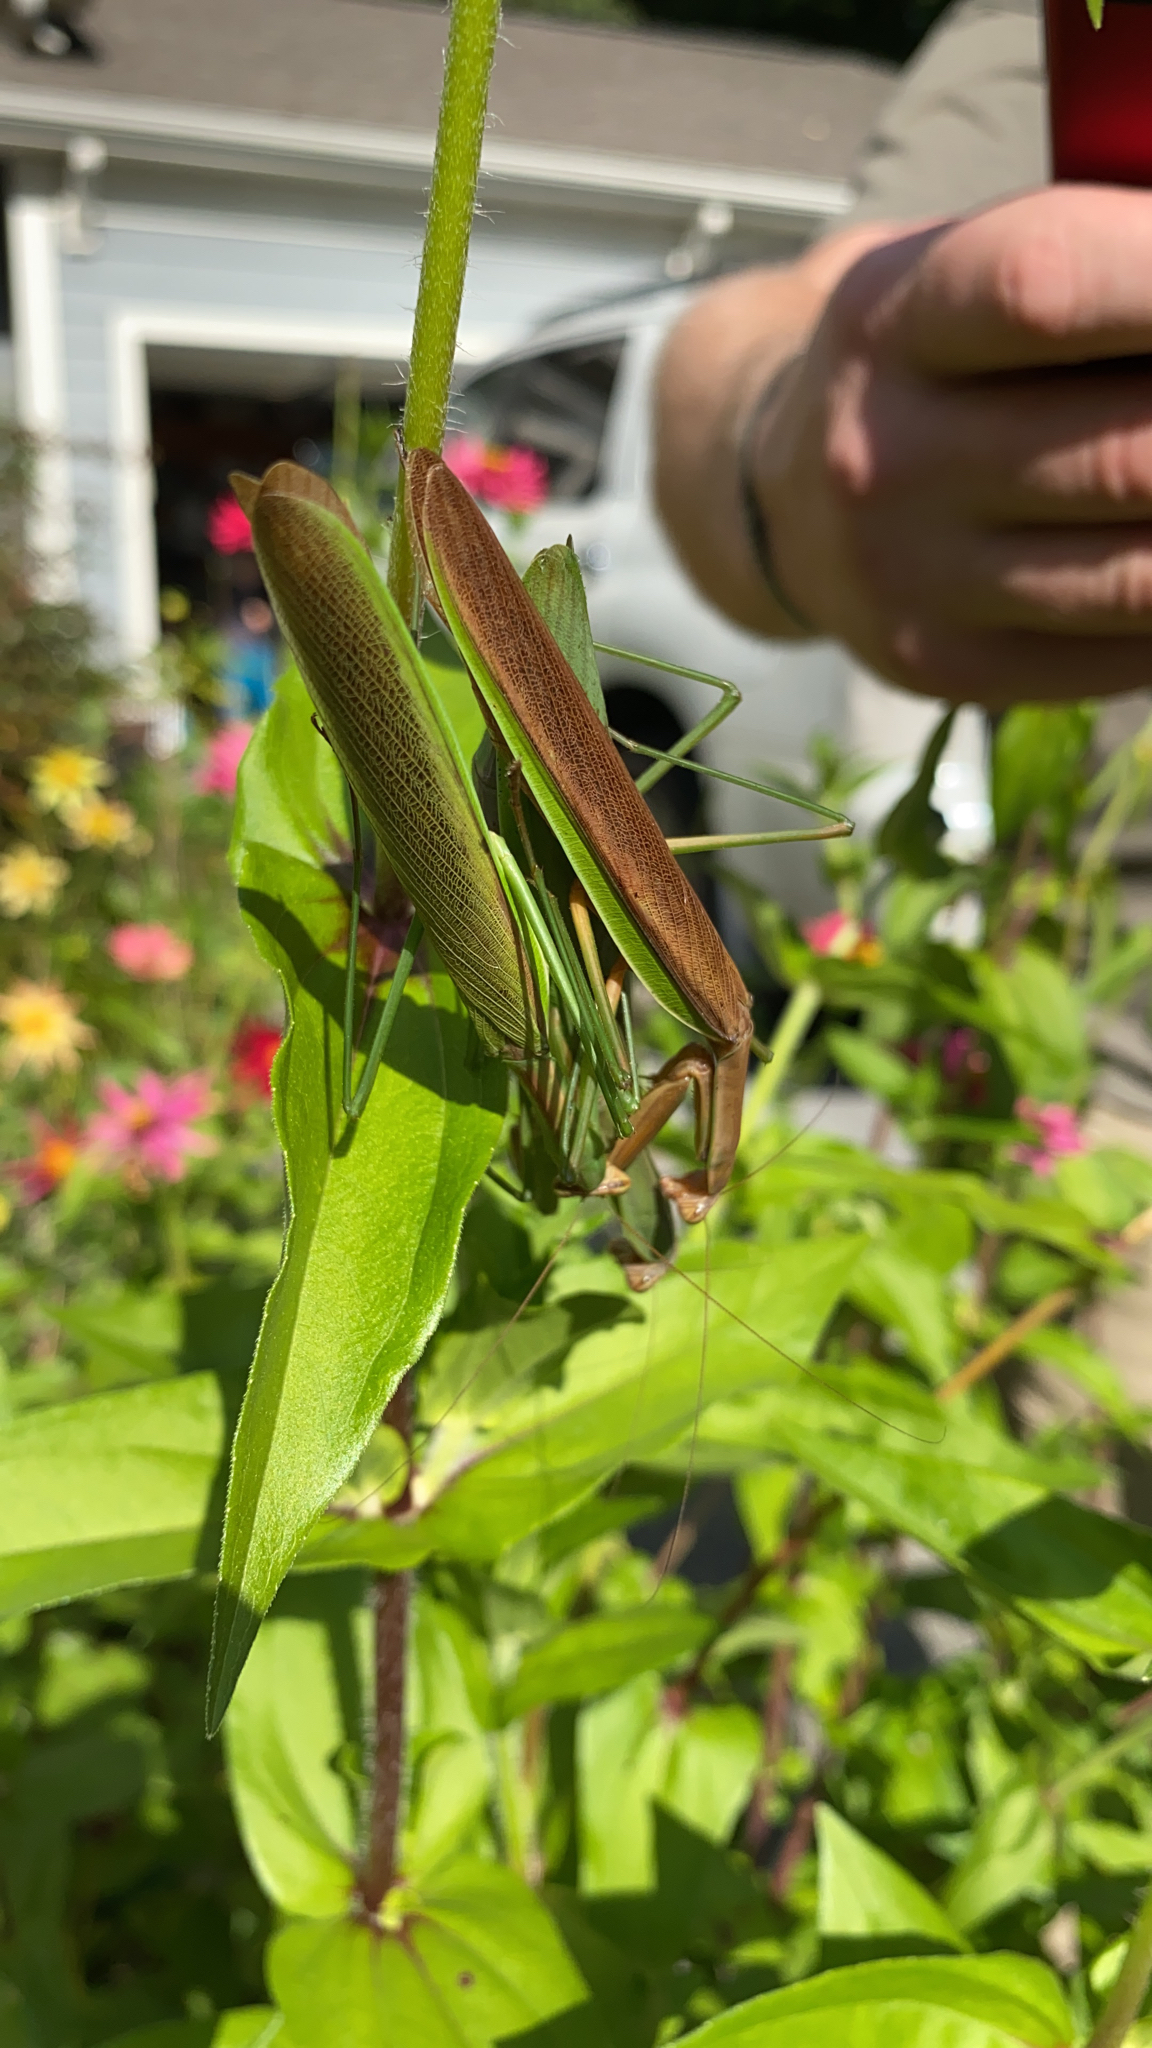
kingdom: Animalia
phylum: Arthropoda
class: Insecta
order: Mantodea
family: Mantidae
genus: Tenodera
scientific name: Tenodera sinensis
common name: Chinese mantis
